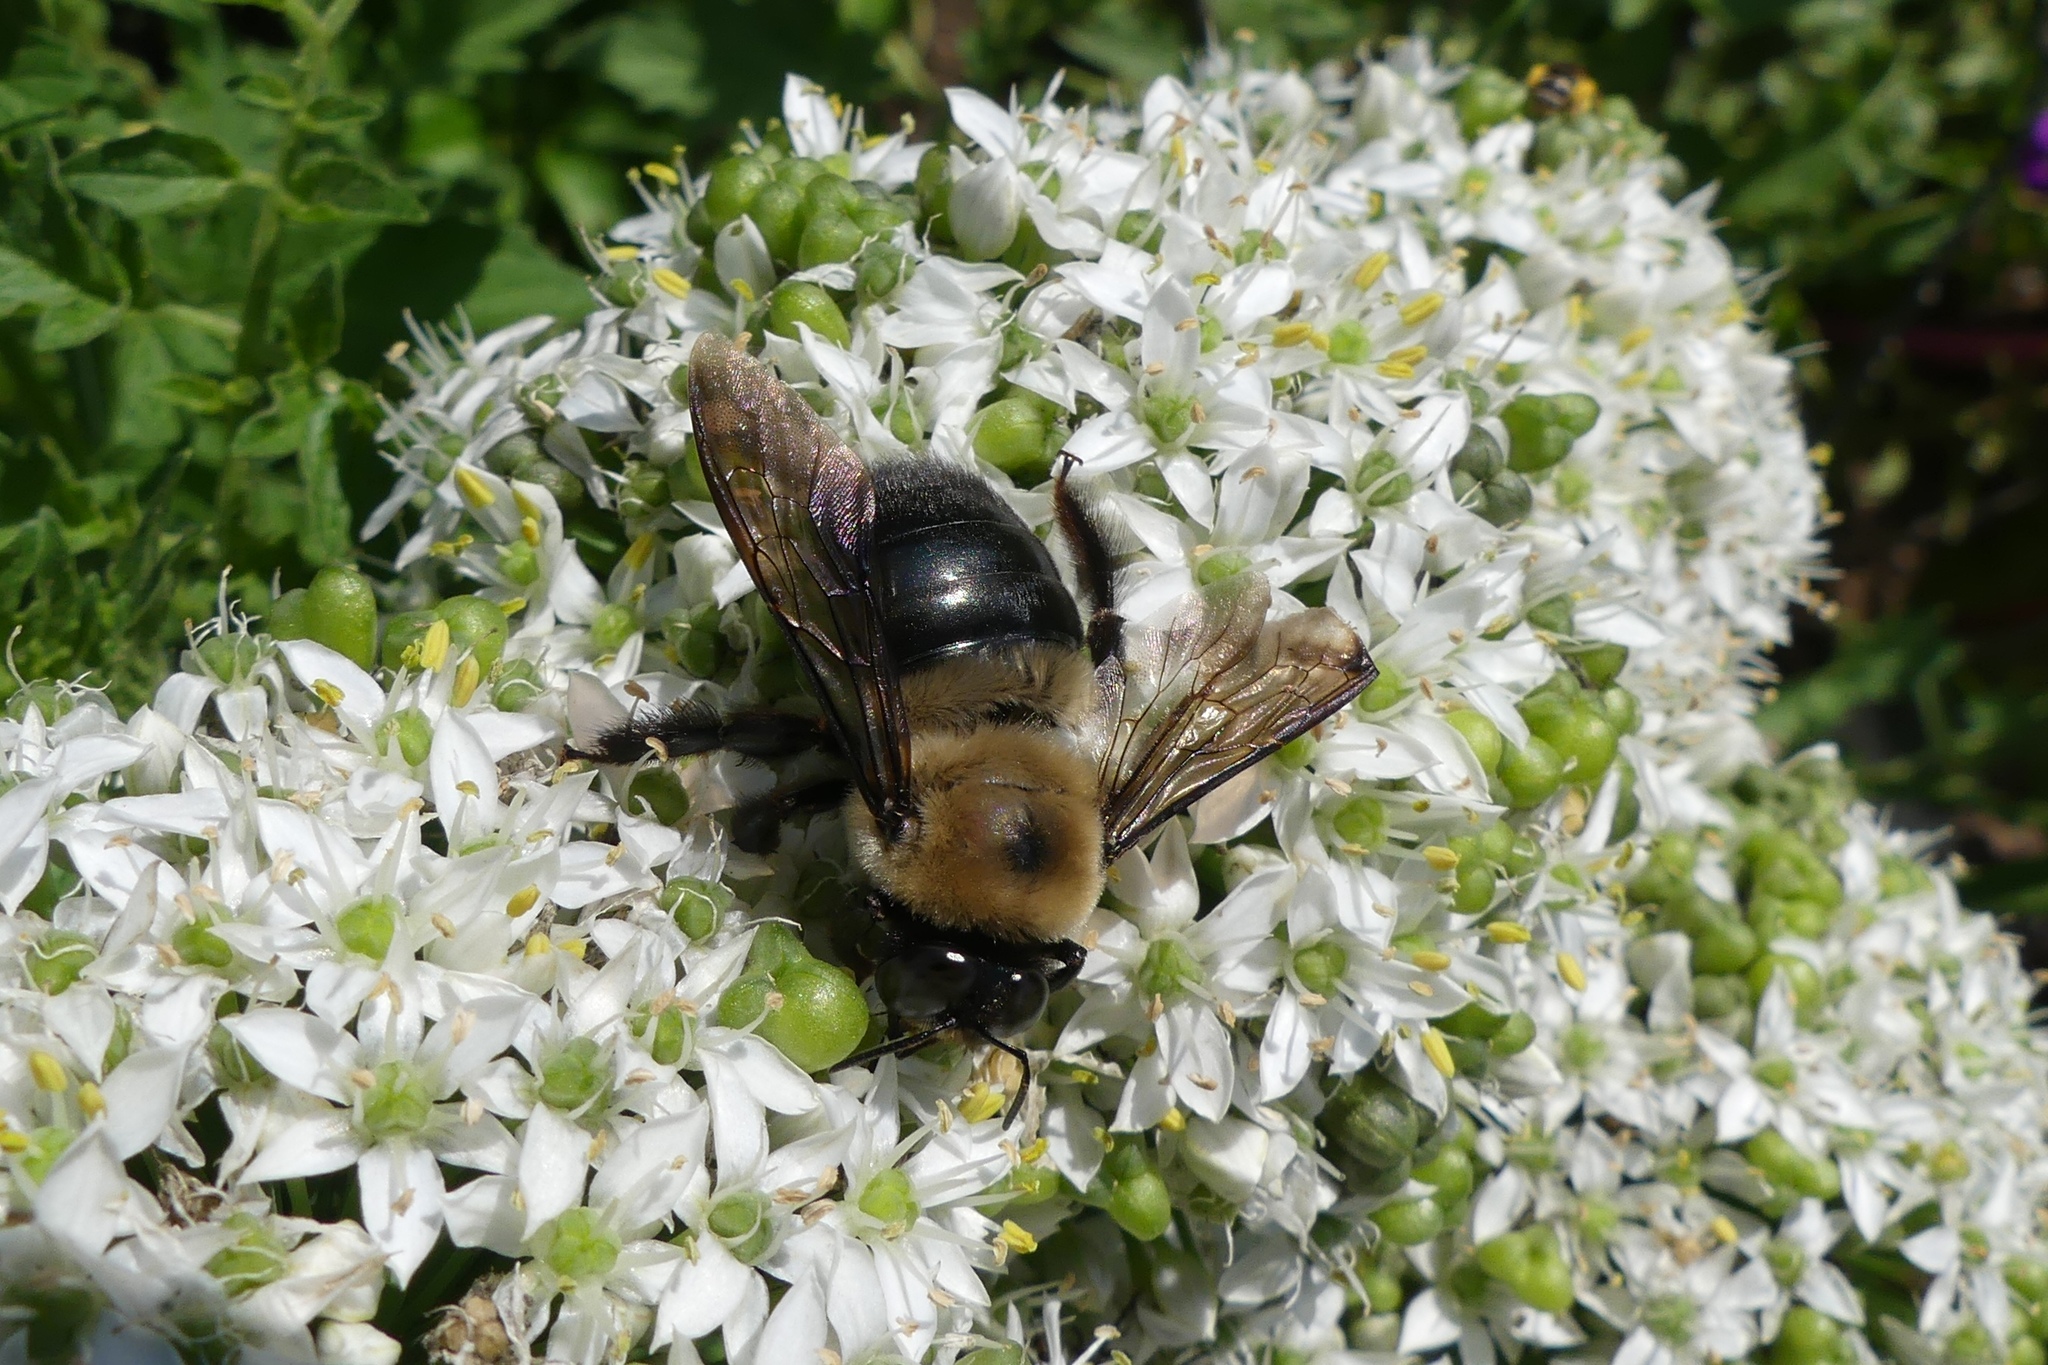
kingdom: Animalia
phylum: Arthropoda
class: Insecta
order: Hymenoptera
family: Apidae
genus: Xylocopa
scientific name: Xylocopa virginica
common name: Carpenter bee
